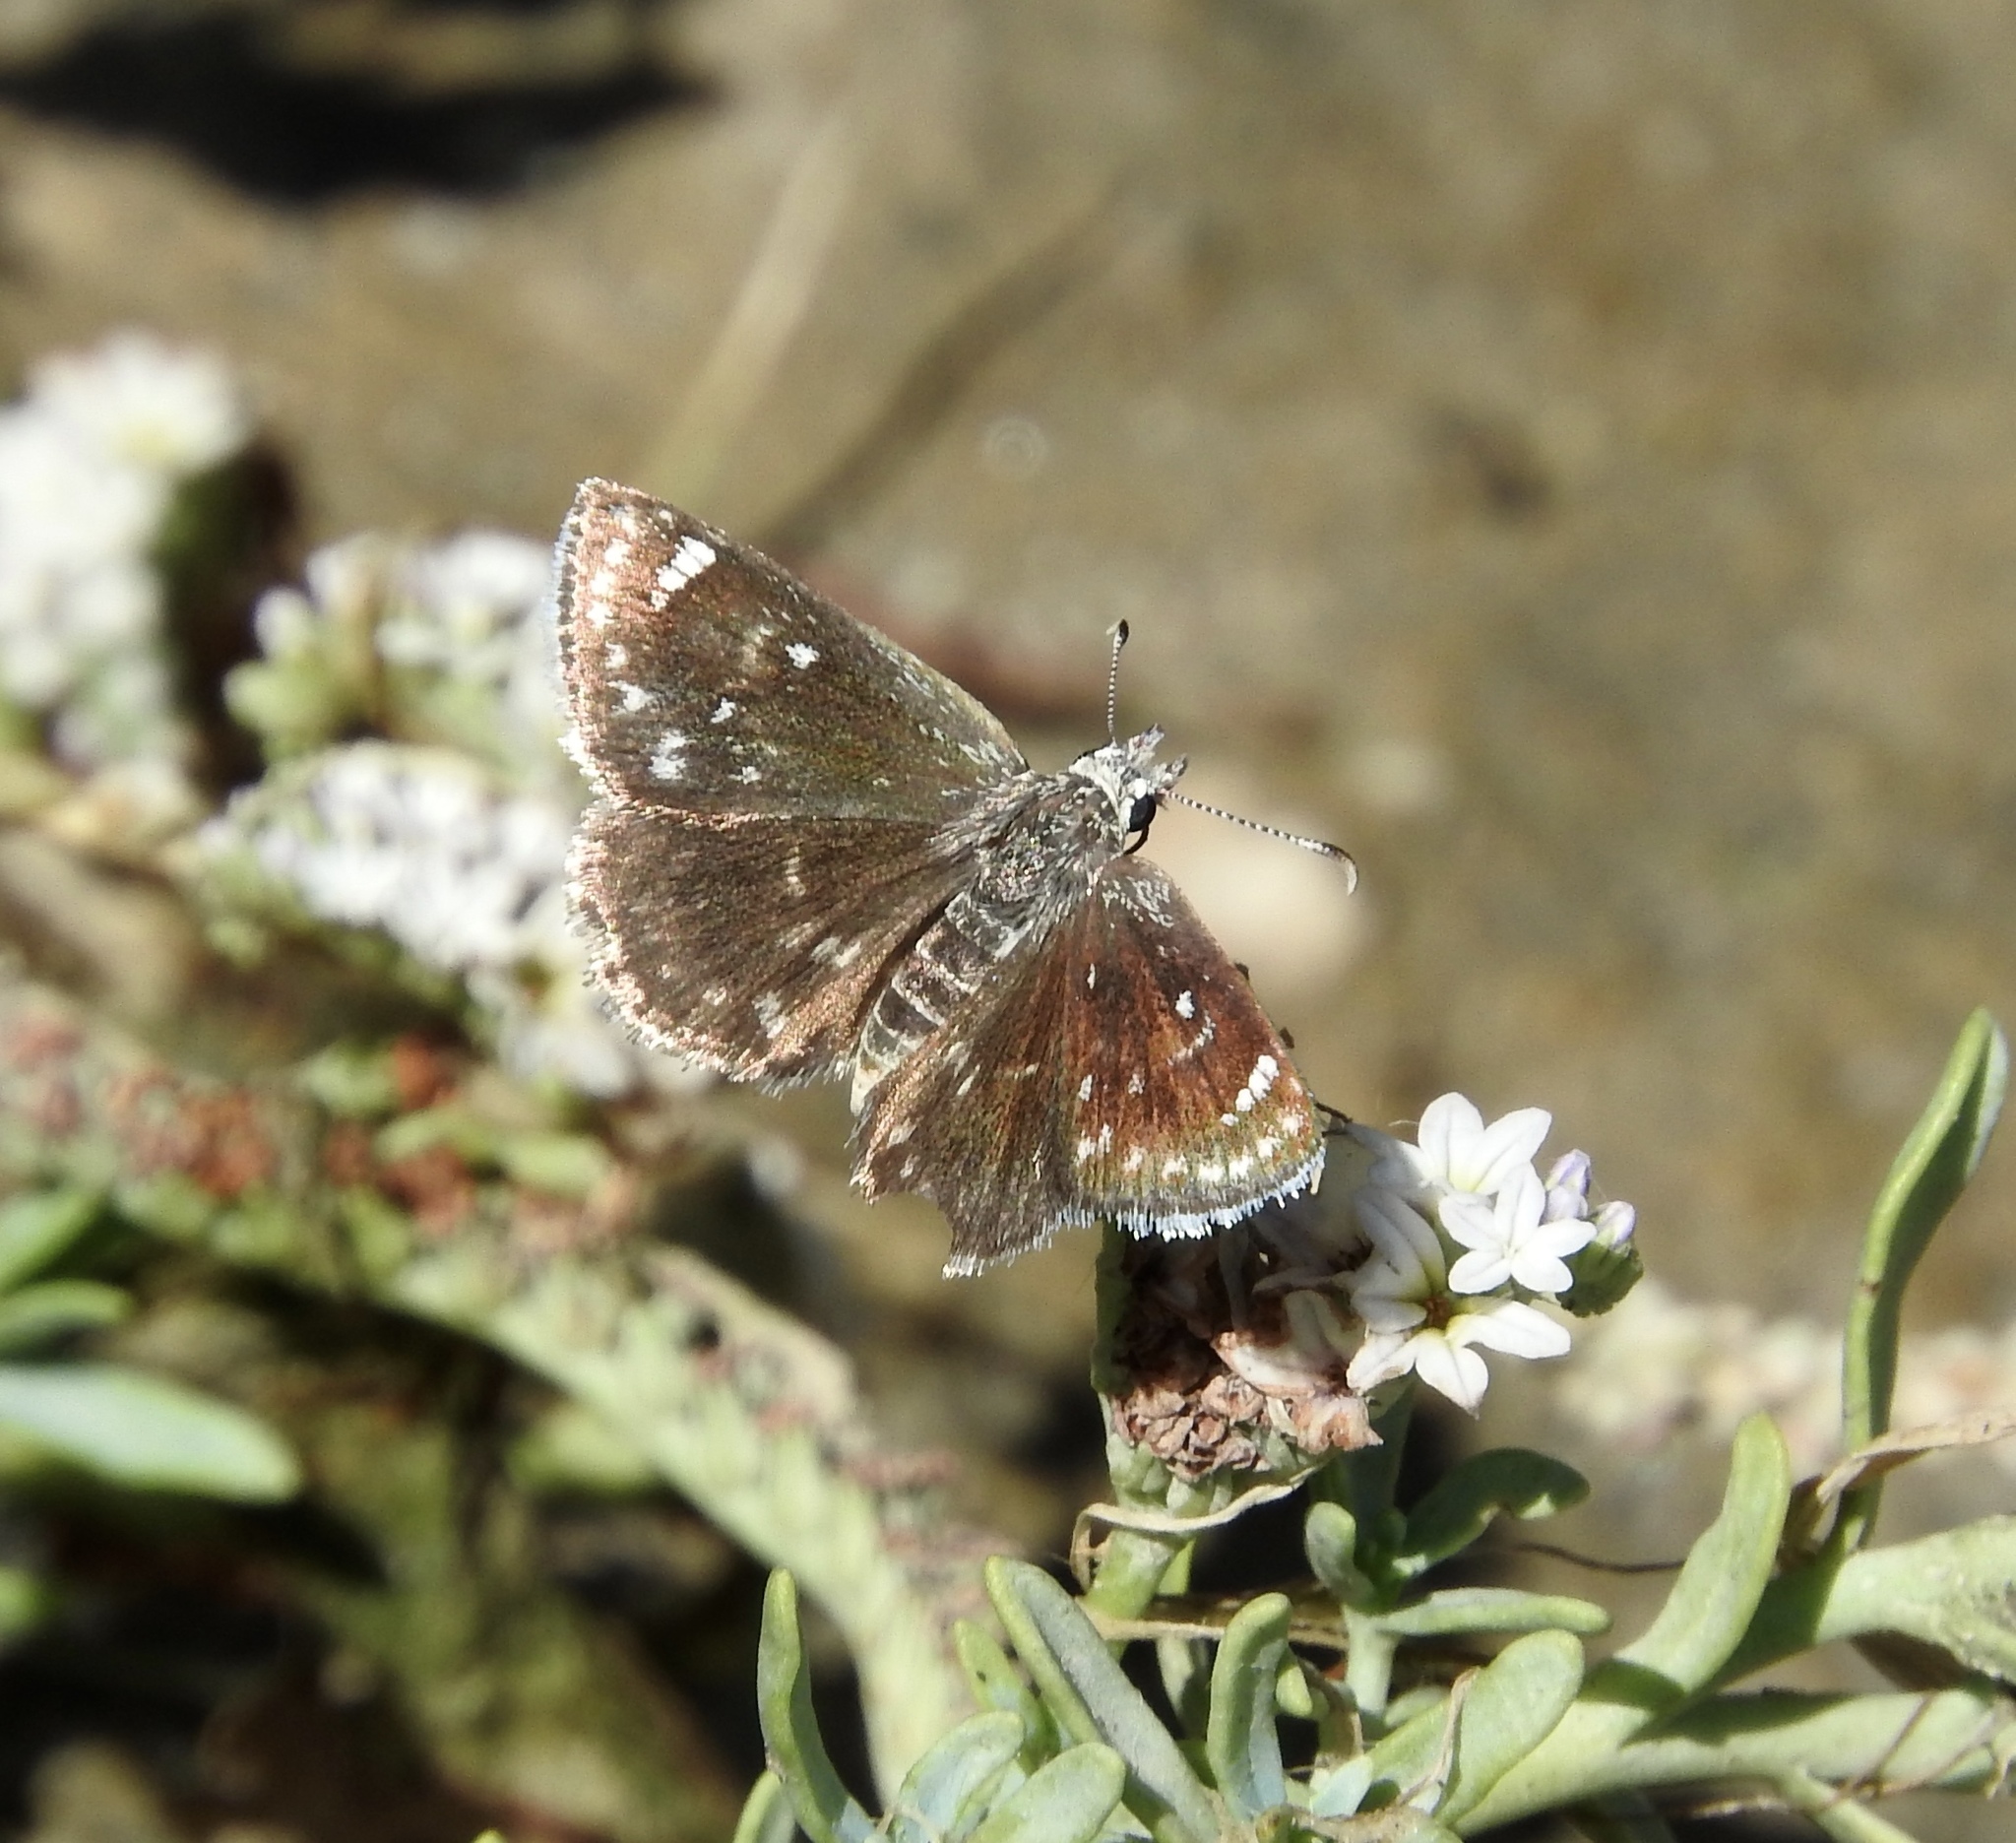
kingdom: Animalia
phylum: Arthropoda
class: Insecta
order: Lepidoptera
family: Hesperiidae
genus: Pholisora
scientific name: Pholisora libya
